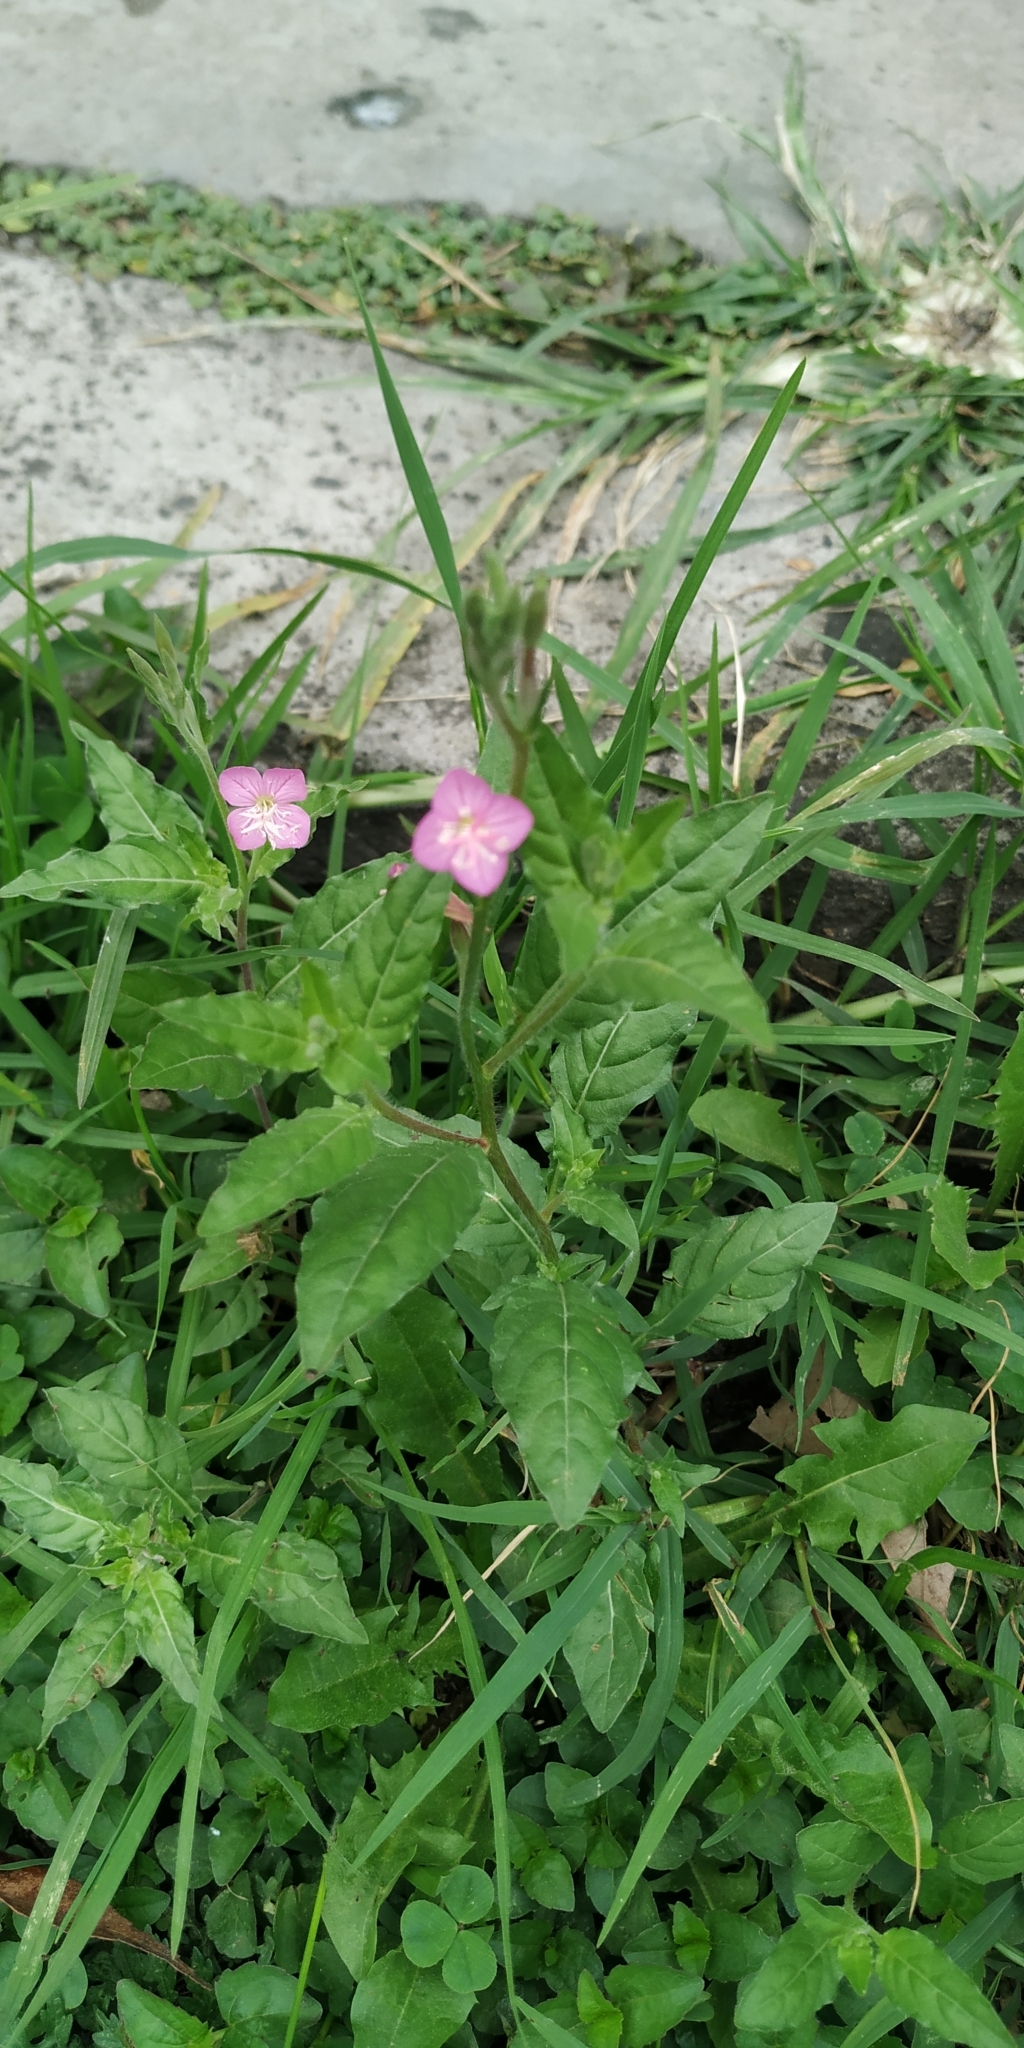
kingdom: Plantae
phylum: Tracheophyta
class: Magnoliopsida
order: Myrtales
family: Onagraceae
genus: Oenothera
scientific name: Oenothera rosea
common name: Rosy evening-primrose
